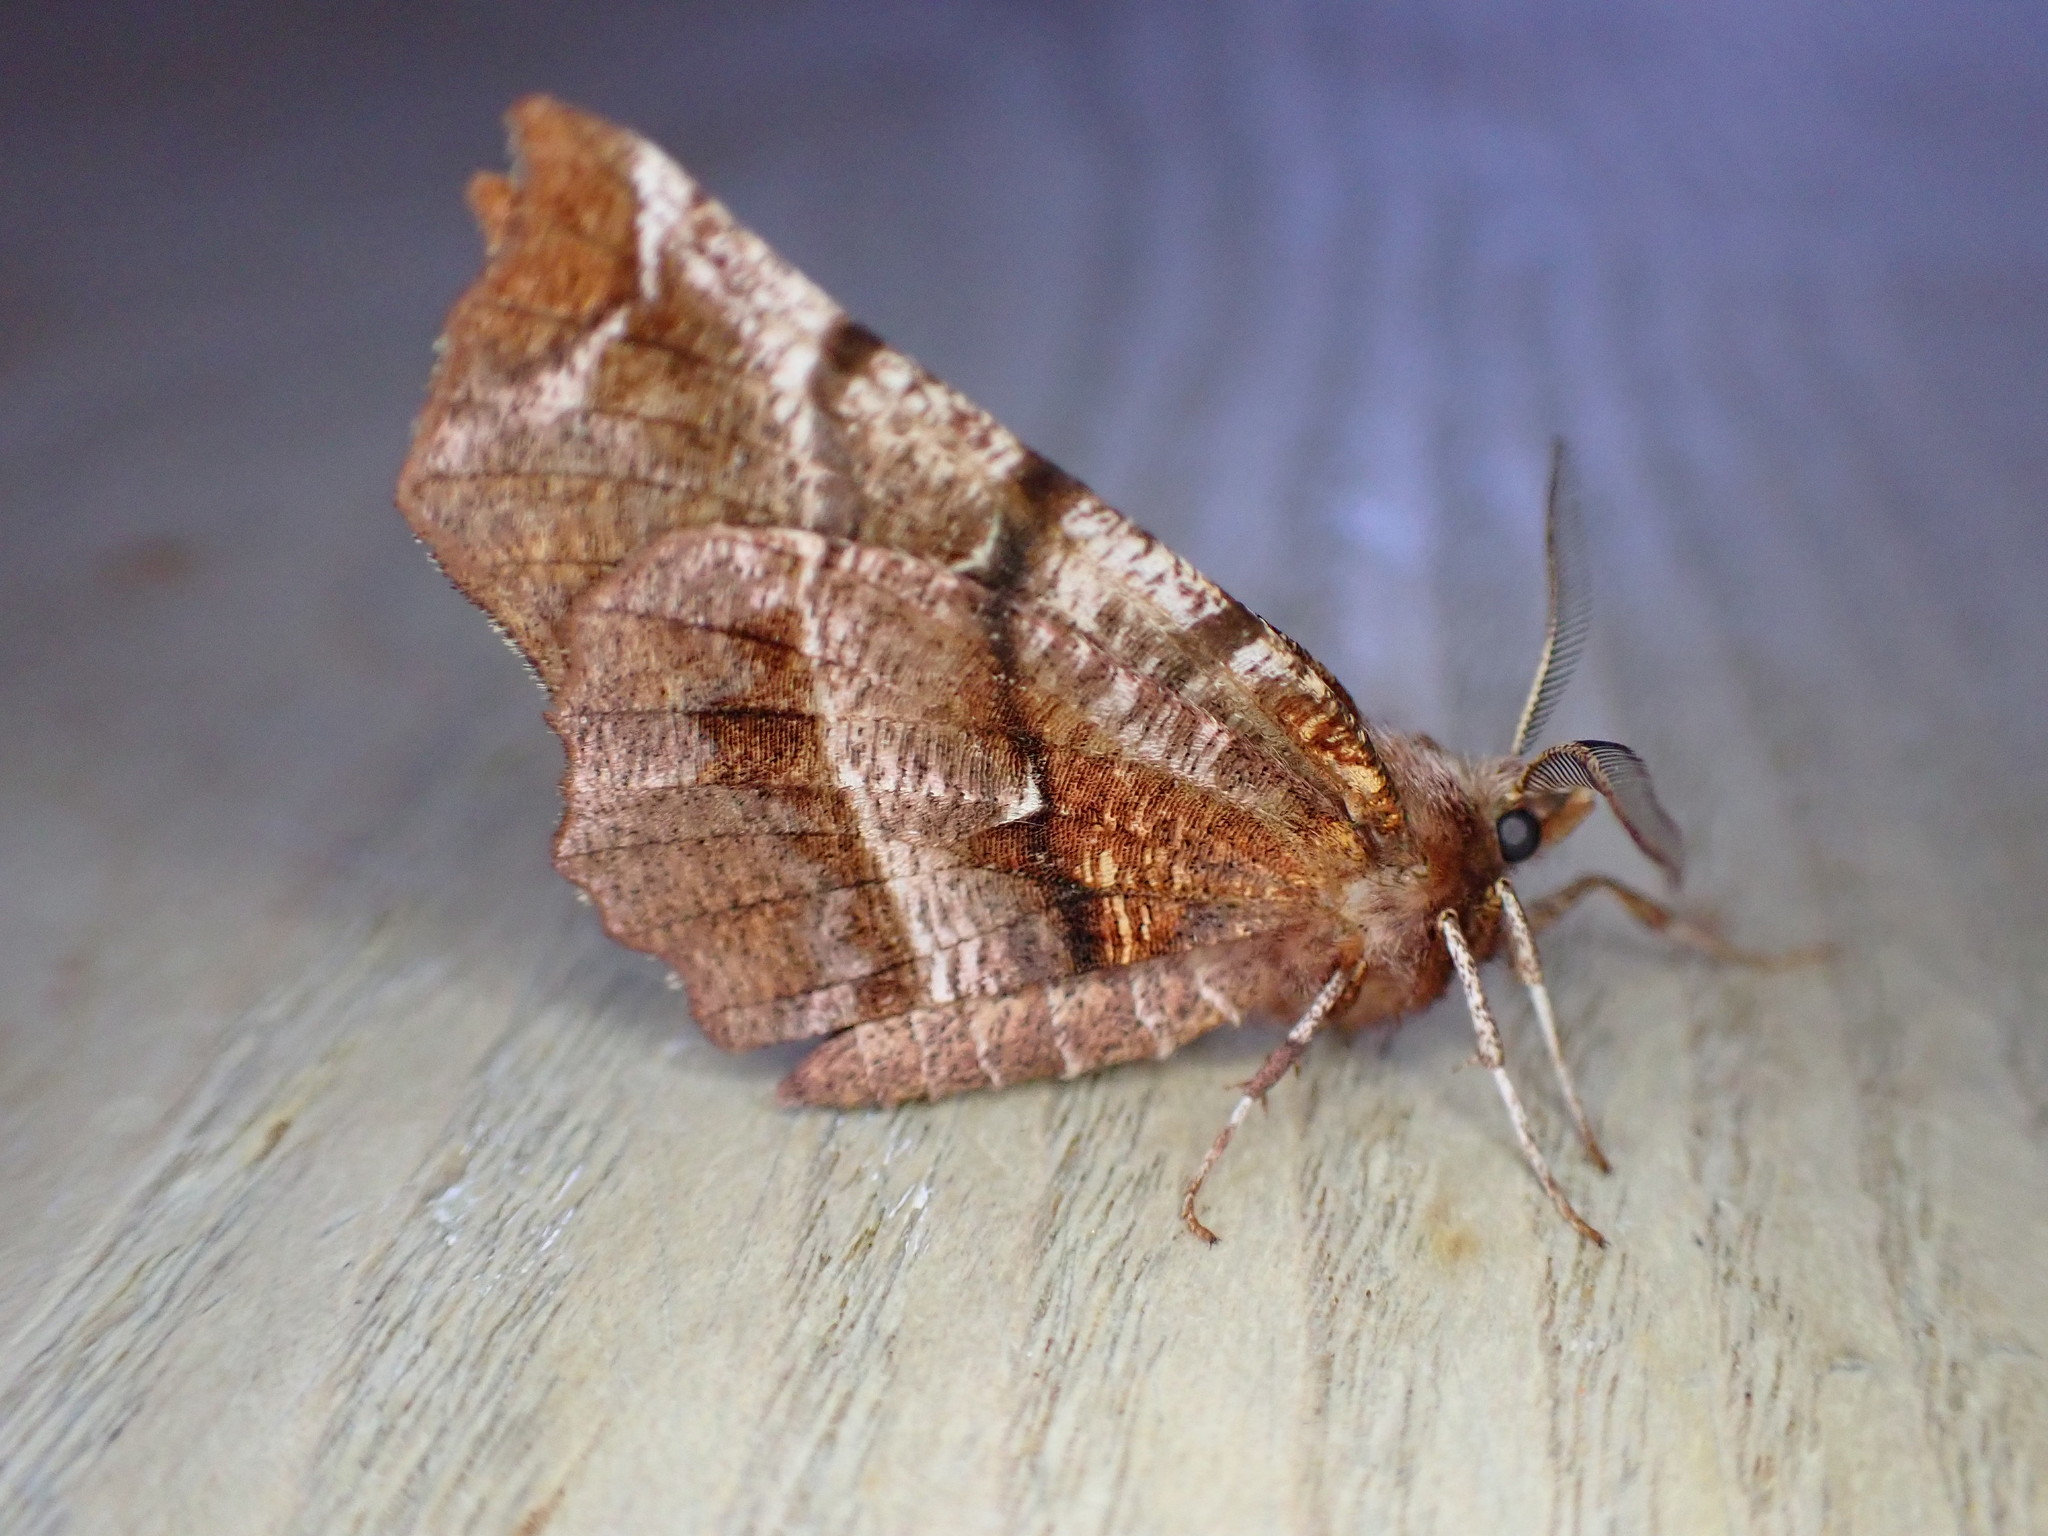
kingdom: Animalia
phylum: Arthropoda
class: Insecta
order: Lepidoptera
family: Geometridae
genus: Selenia
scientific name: Selenia dentaria
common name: Early thorn
